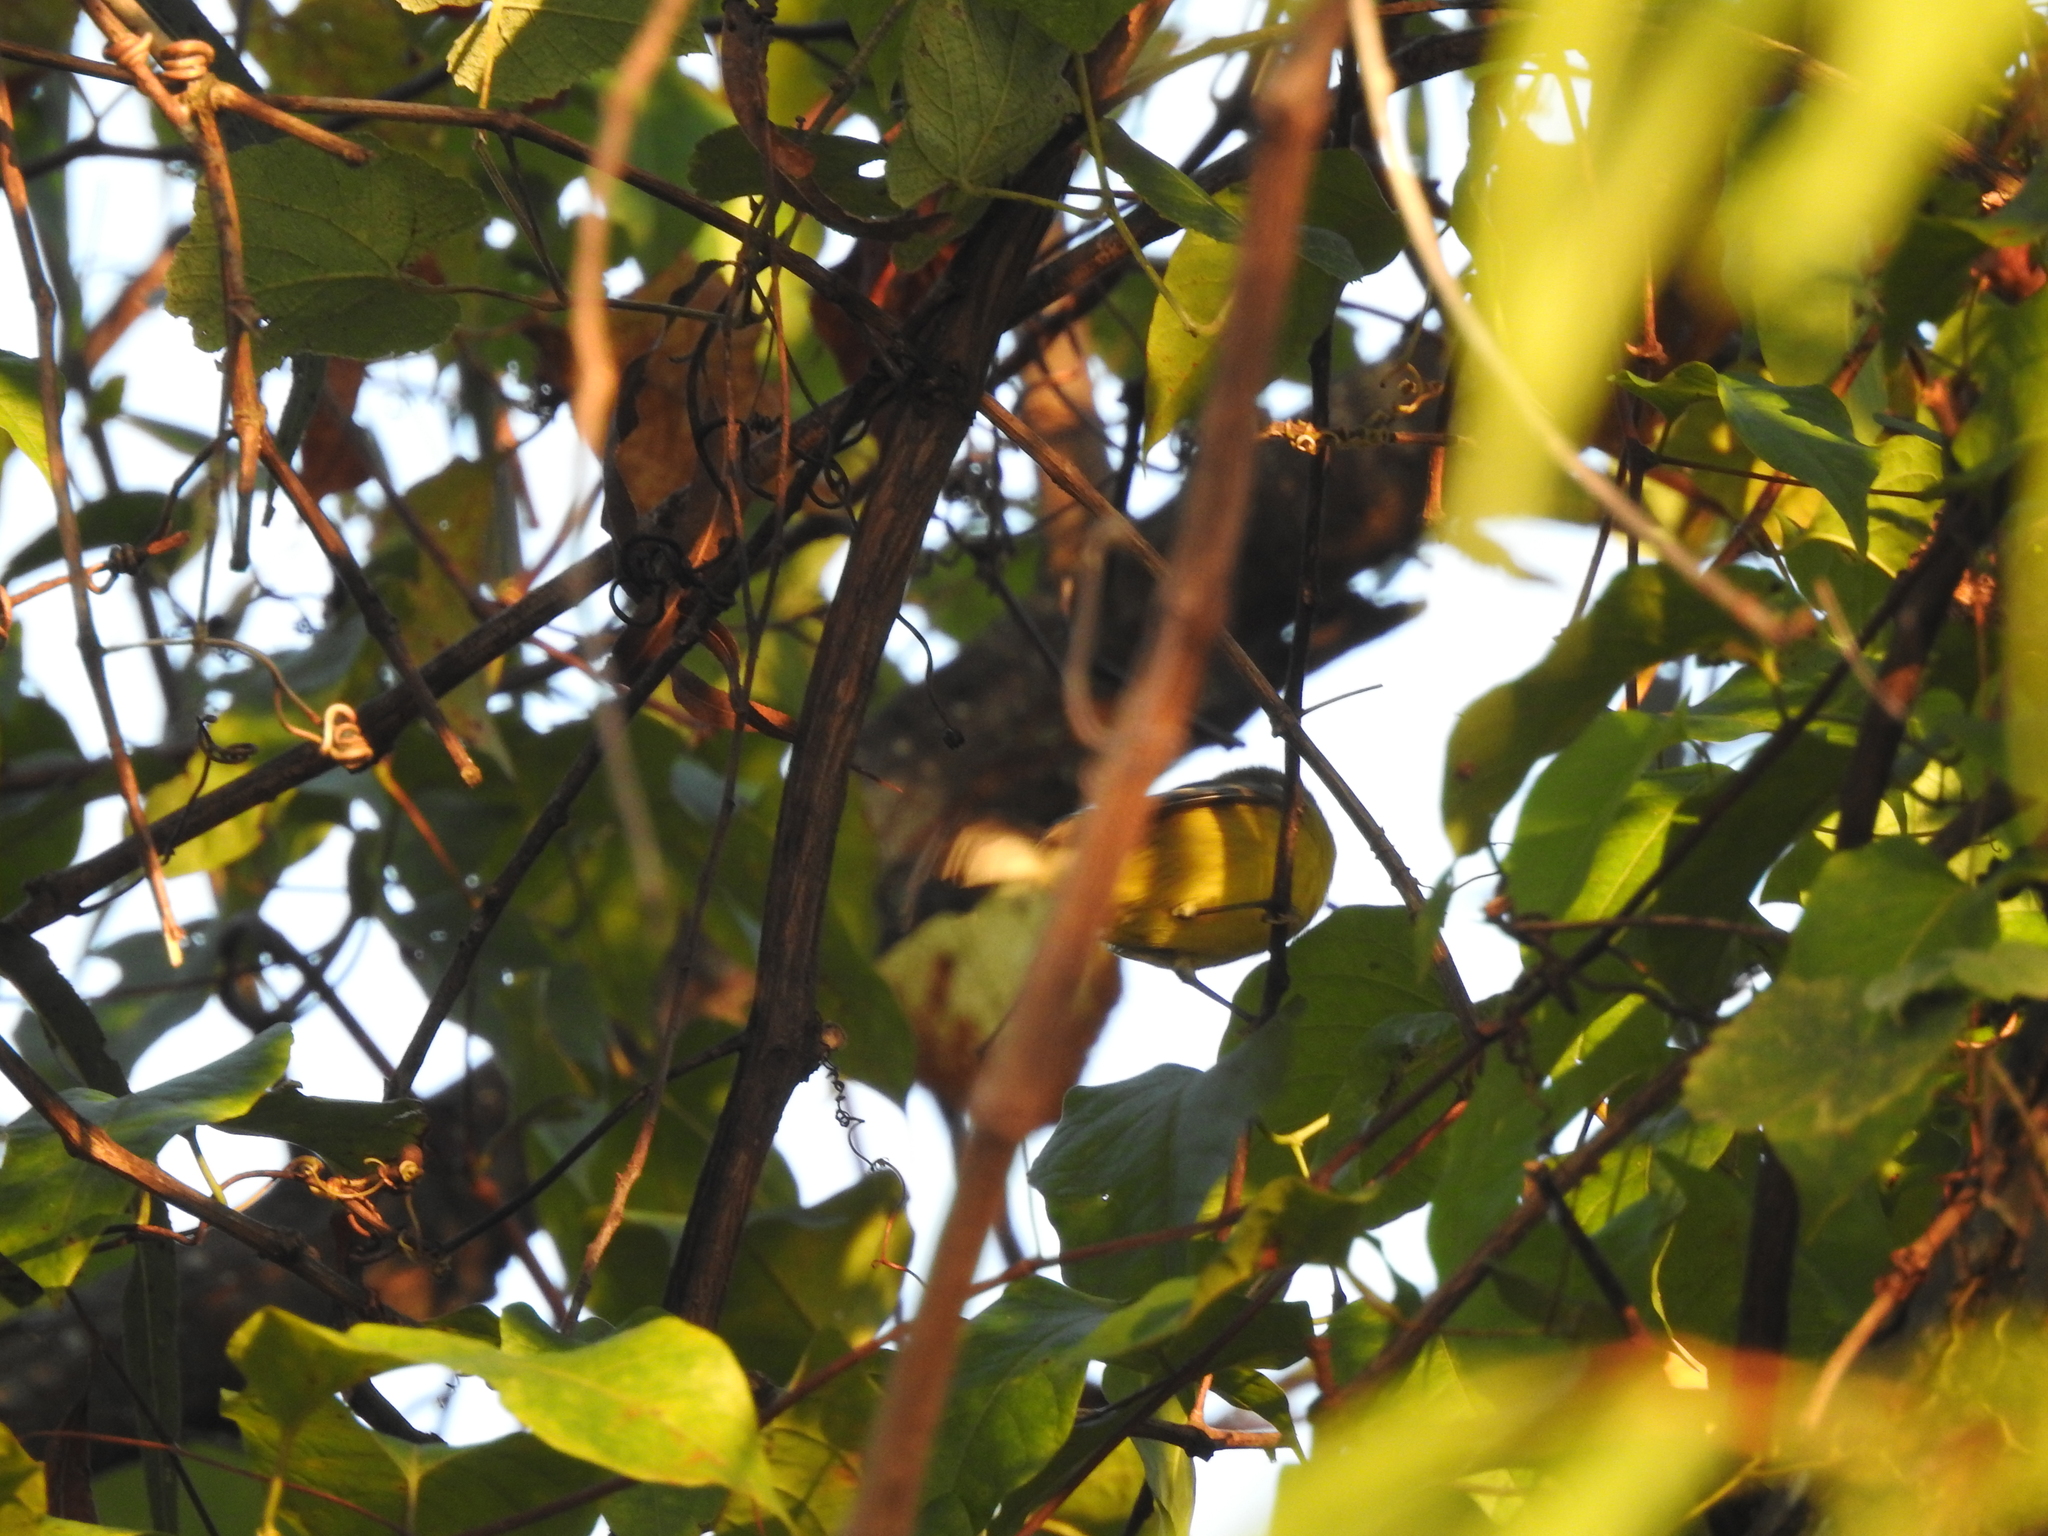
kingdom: Animalia
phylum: Chordata
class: Aves
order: Passeriformes
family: Parulidae
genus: Vermivora
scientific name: Vermivora cyanoptera
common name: Blue-winged warbler
